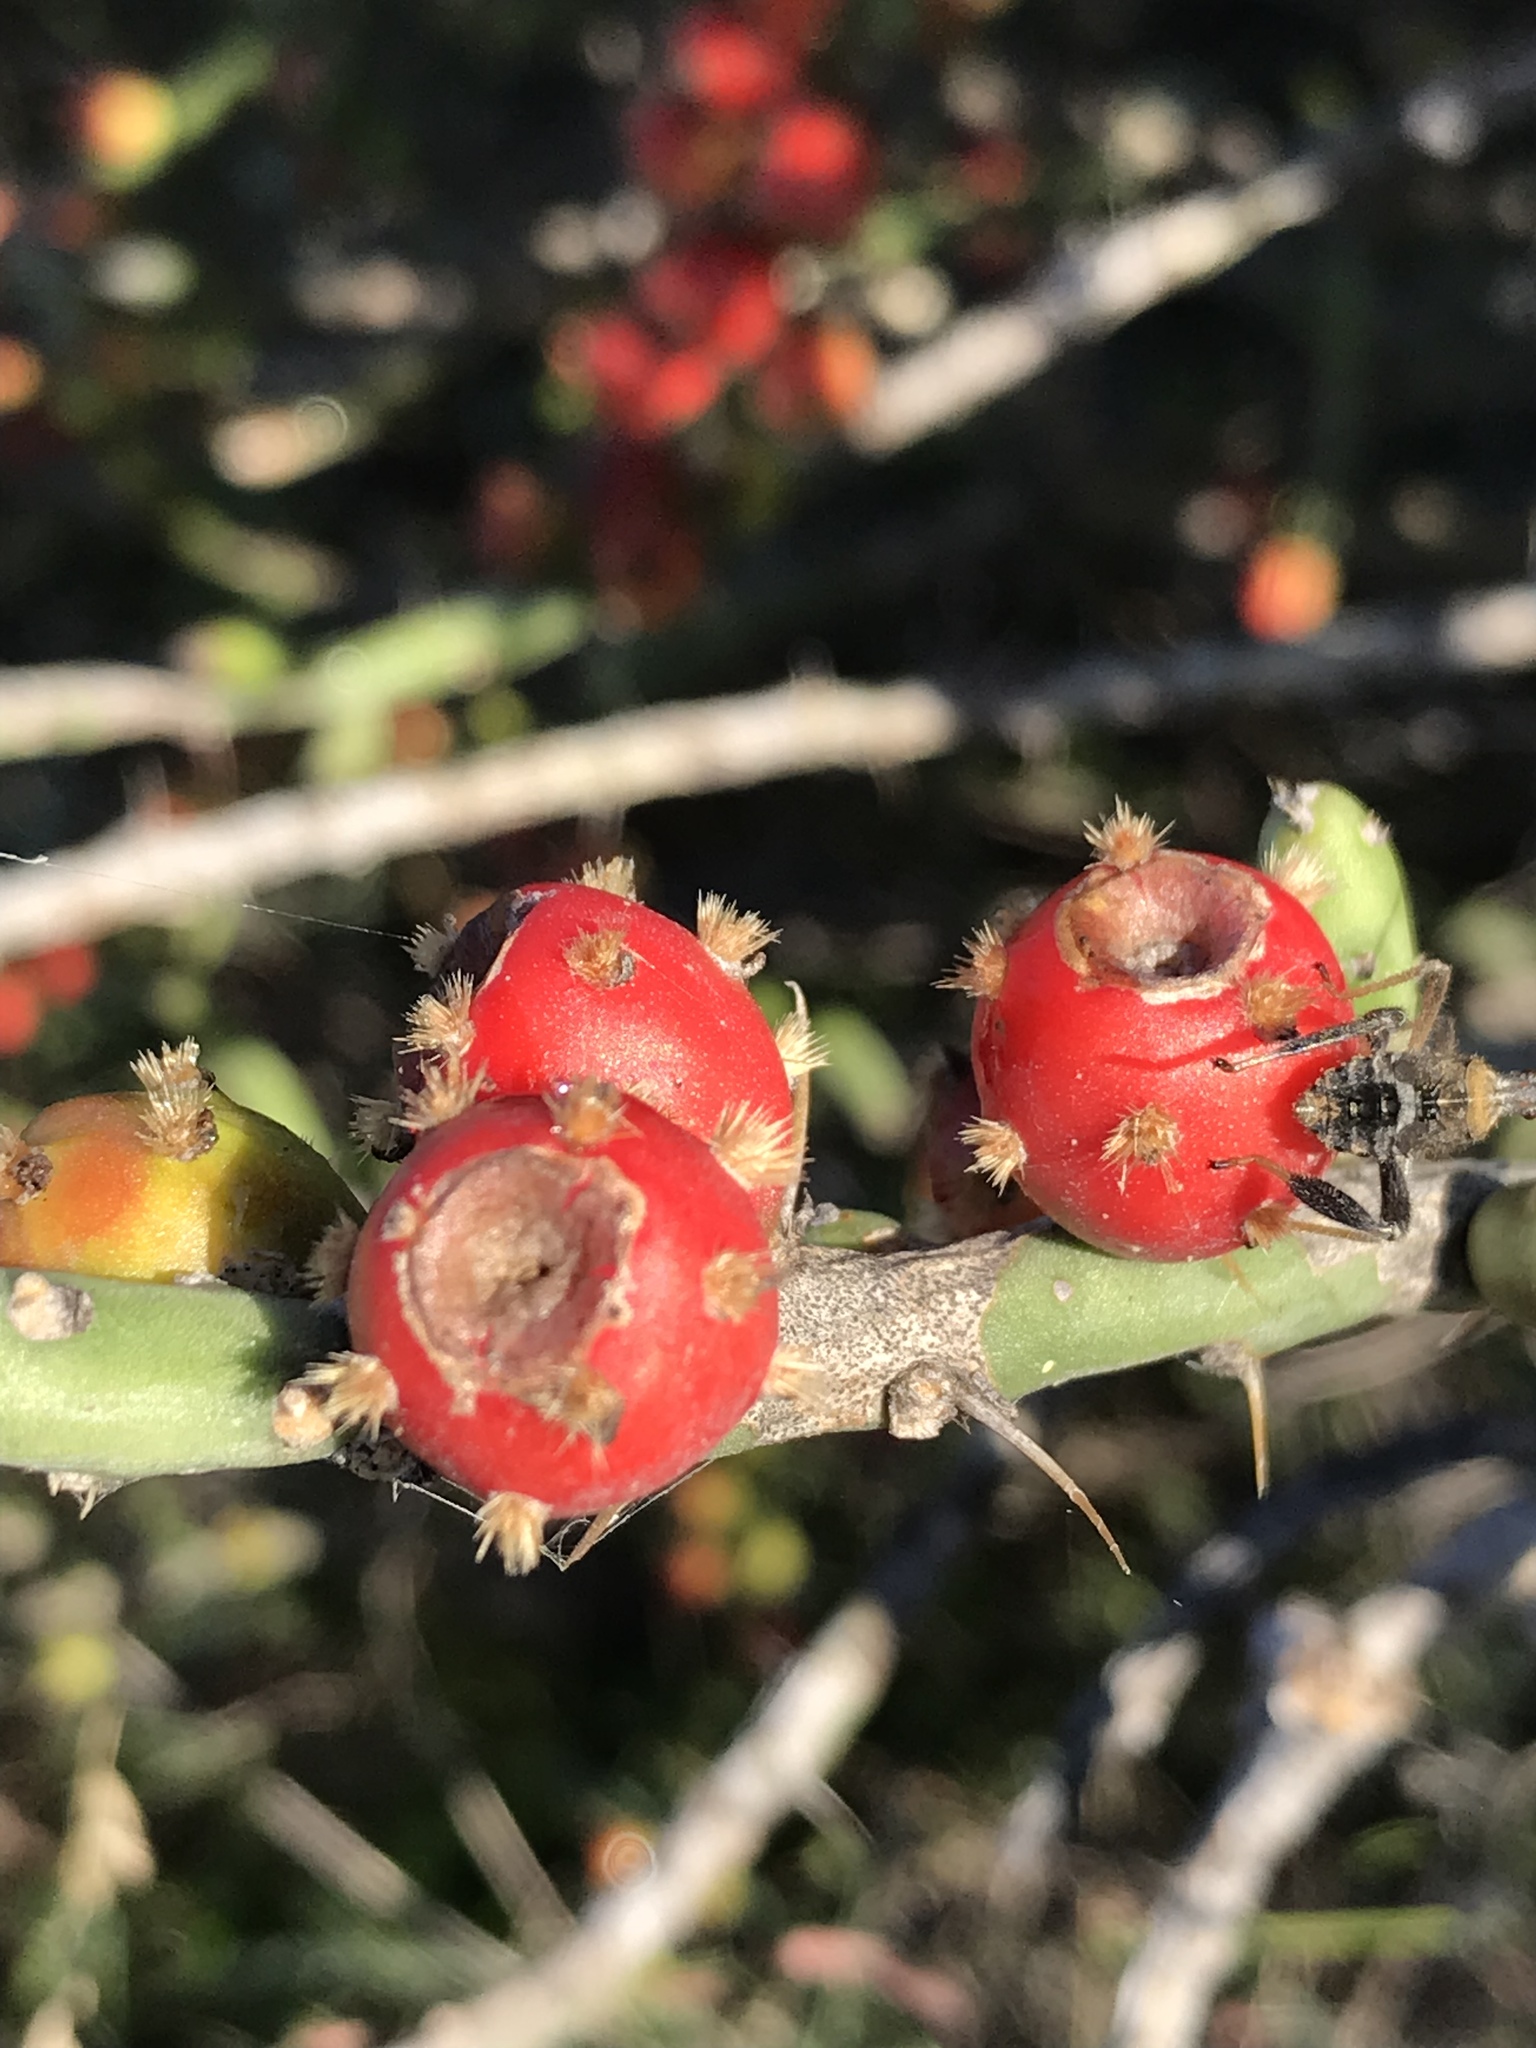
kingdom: Plantae
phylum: Tracheophyta
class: Magnoliopsida
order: Caryophyllales
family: Cactaceae
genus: Cylindropuntia
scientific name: Cylindropuntia leptocaulis
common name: Christmas cactus
